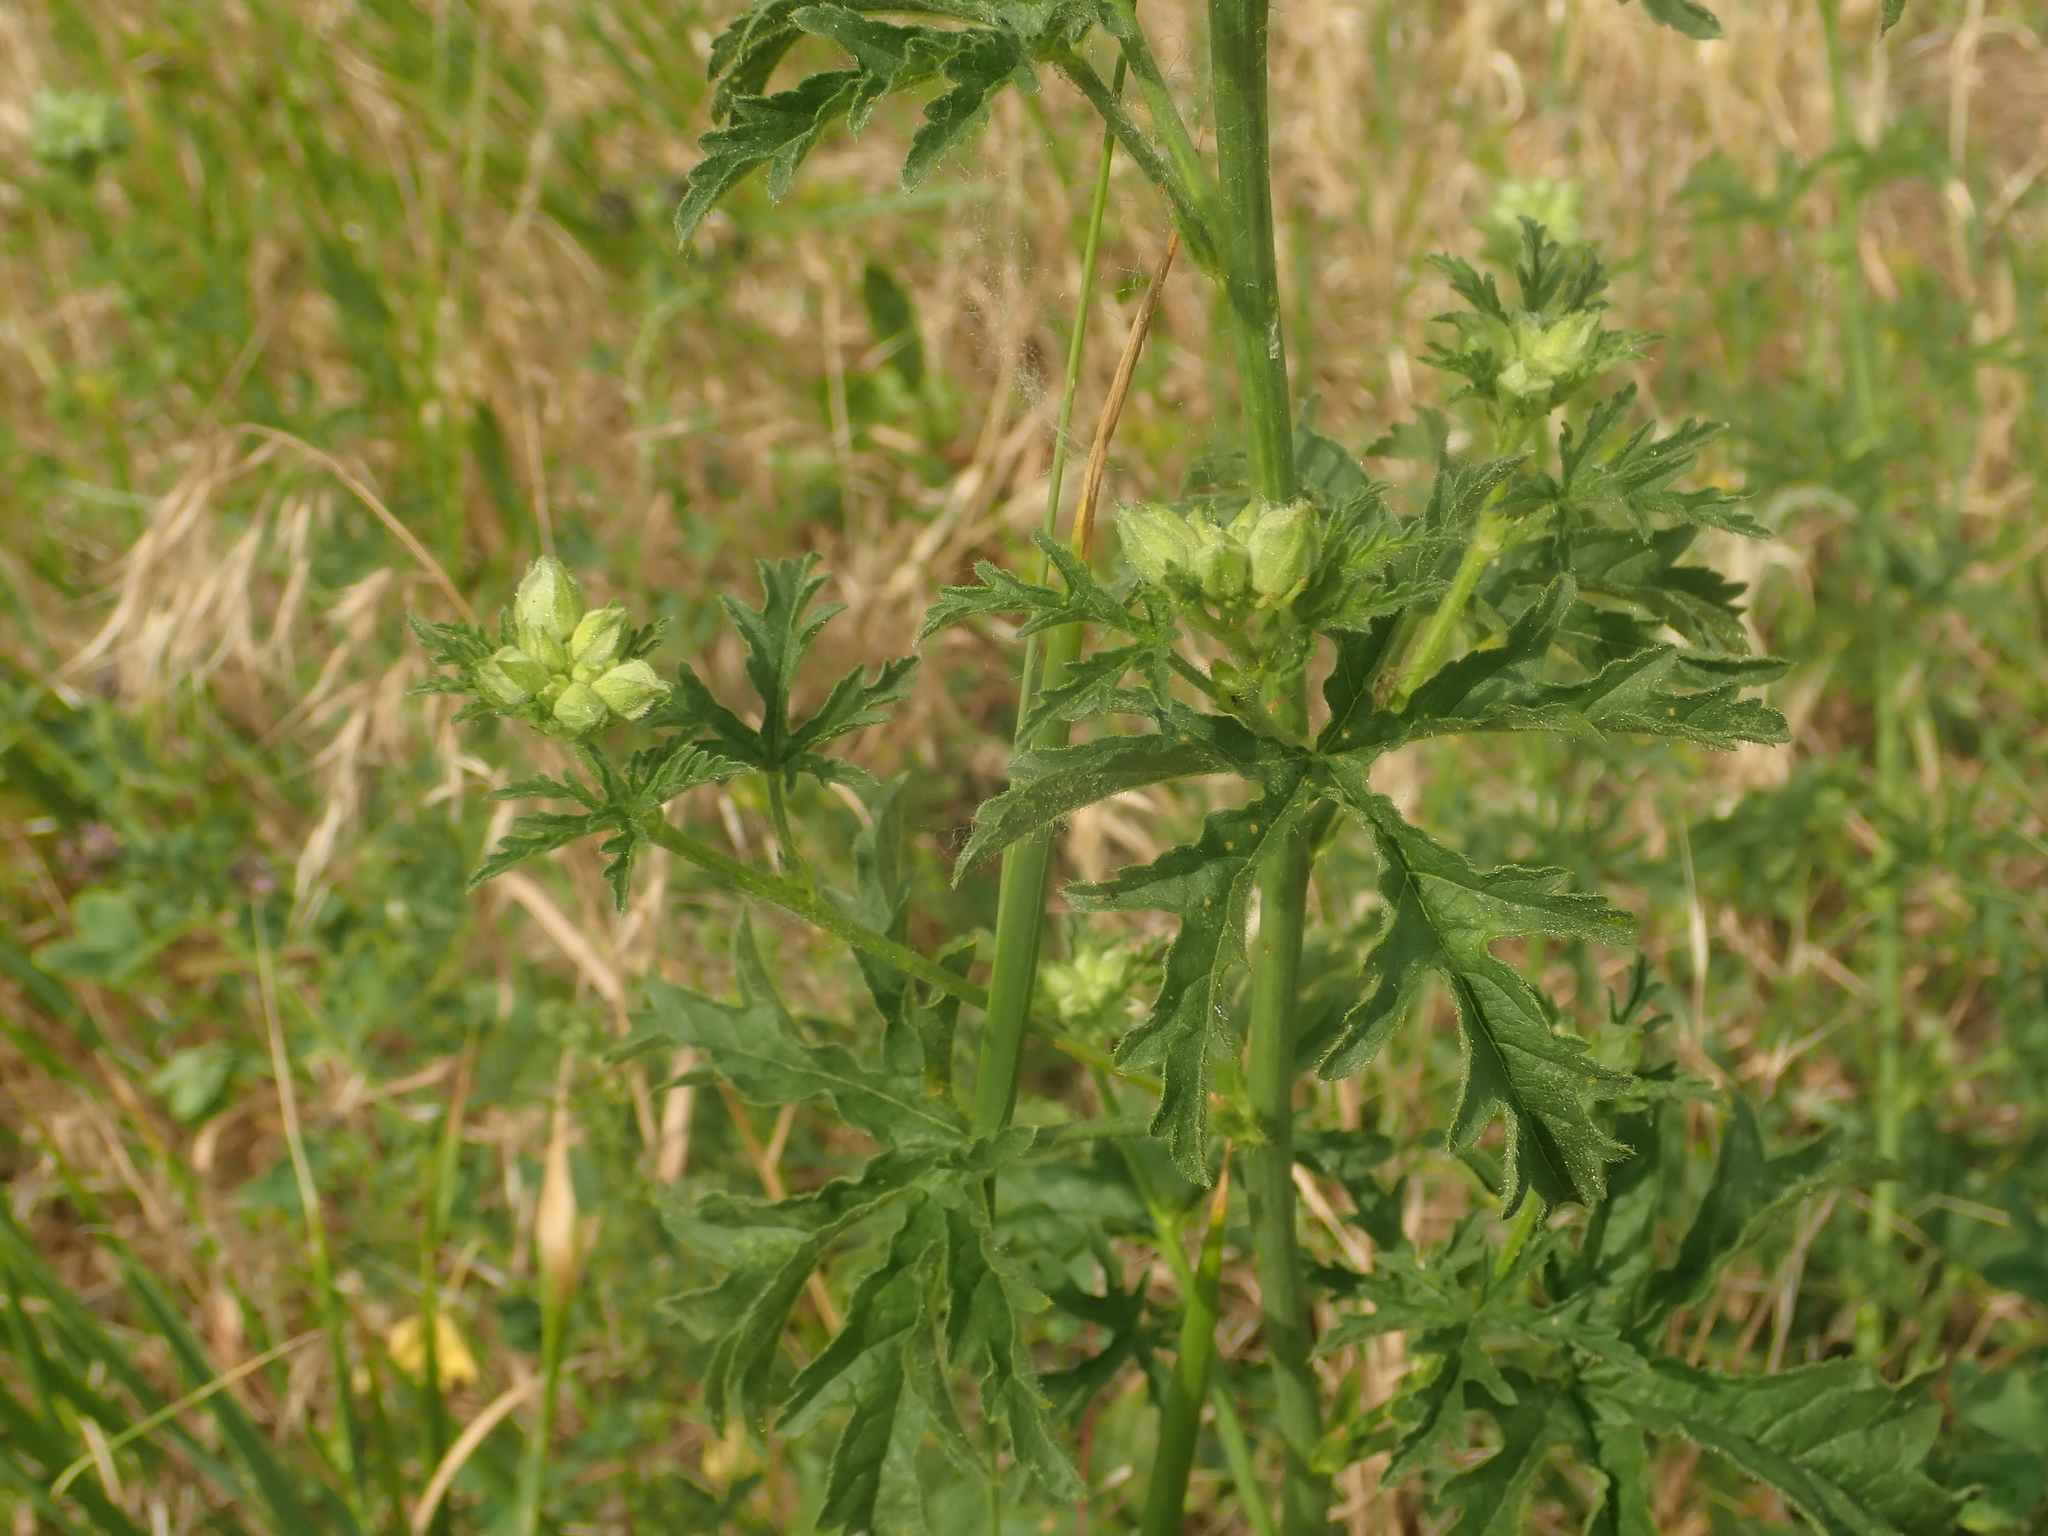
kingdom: Plantae
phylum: Tracheophyta
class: Magnoliopsida
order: Malvales
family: Malvaceae
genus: Malva
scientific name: Malva alcea
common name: Greater musk-mallow
